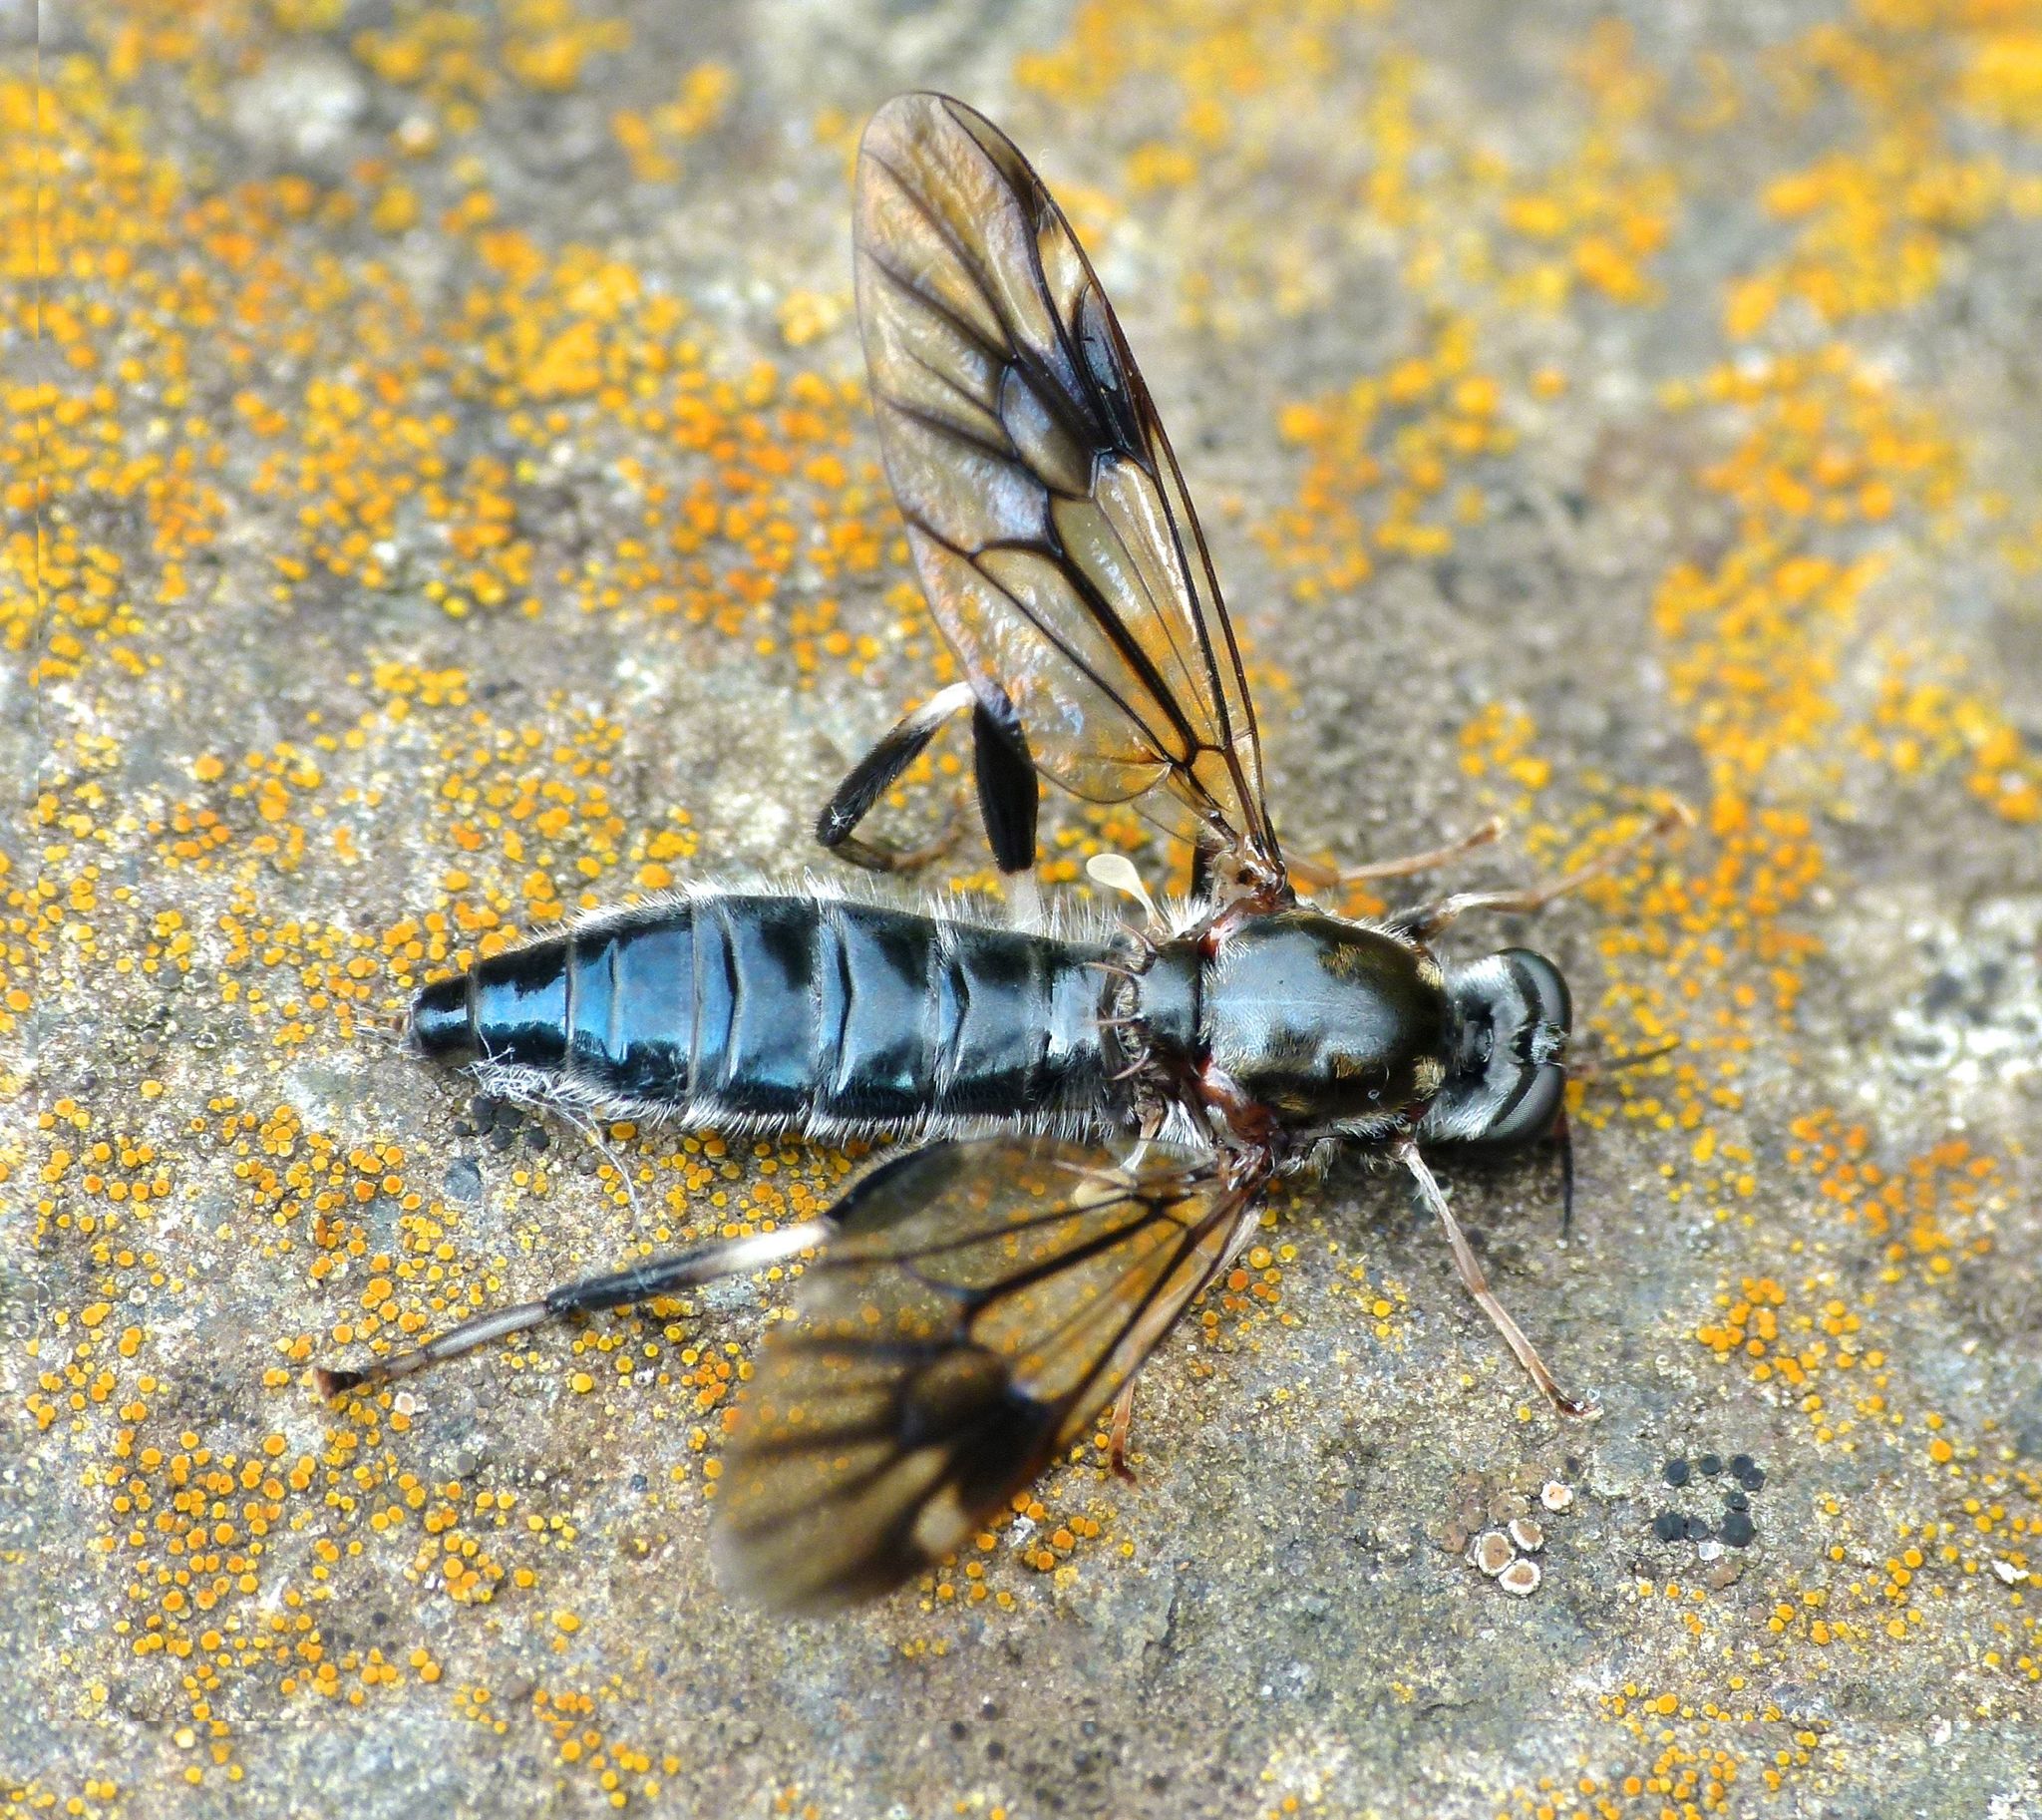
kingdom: Animalia
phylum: Arthropoda
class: Insecta
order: Diptera
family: Stratiomyidae
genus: Exaireta
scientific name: Exaireta spinigera
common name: Blue soldier fly
